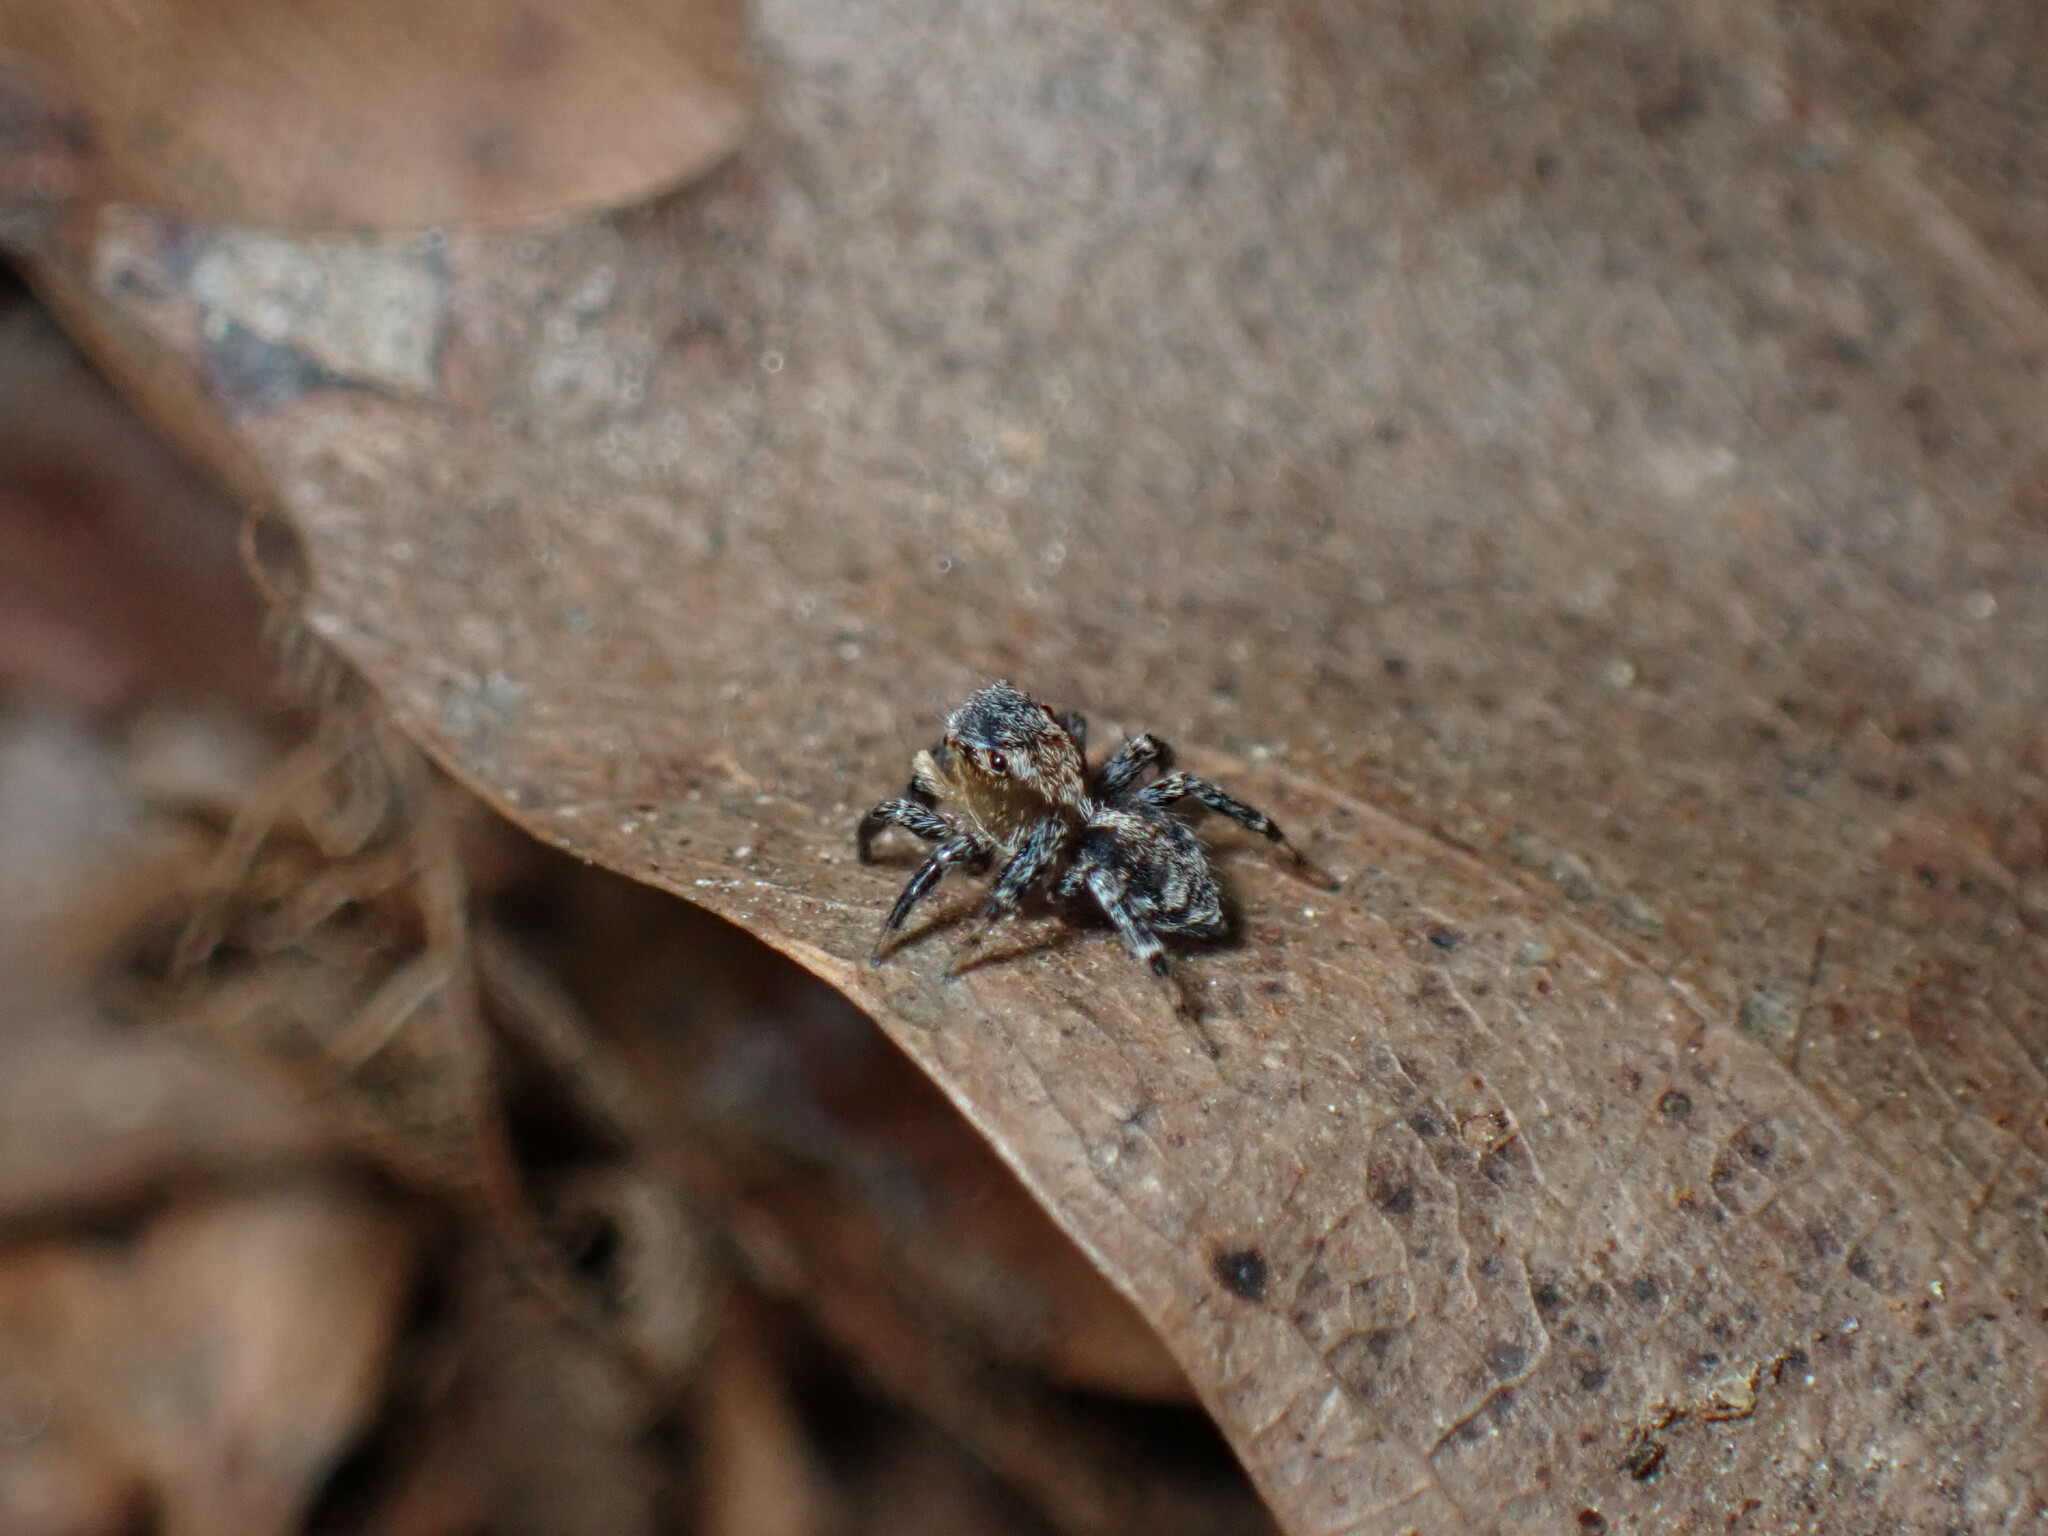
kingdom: Animalia
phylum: Arthropoda
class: Arachnida
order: Araneae
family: Salticidae
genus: Naphrys
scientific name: Naphrys pulex
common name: Flea jumping spider
